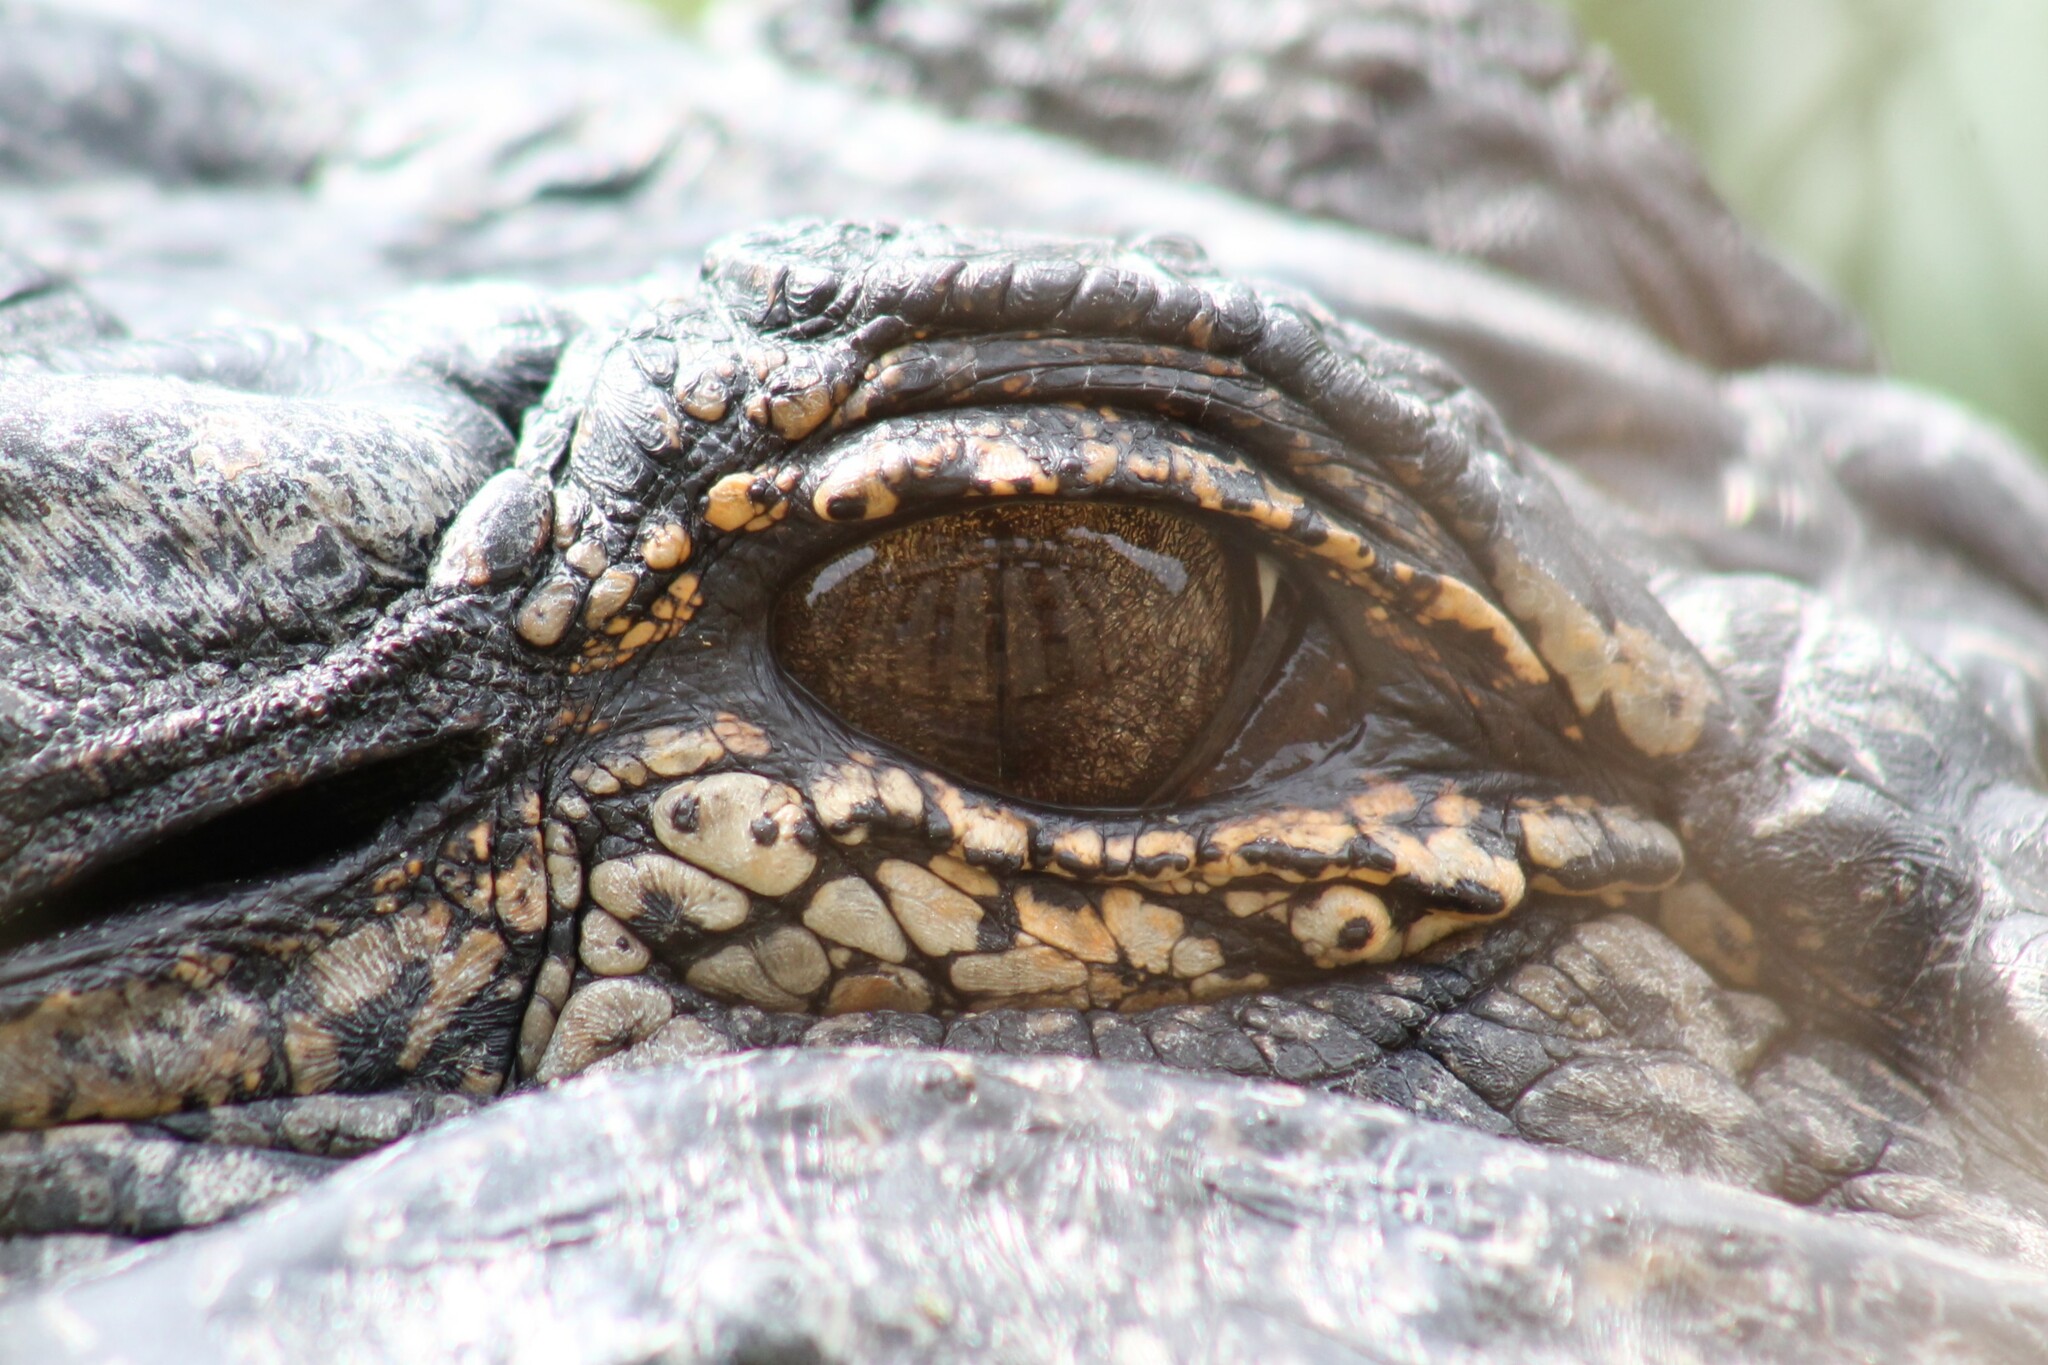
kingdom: Animalia
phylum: Chordata
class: Crocodylia
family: Alligatoridae
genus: Alligator
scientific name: Alligator mississippiensis
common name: American alligator
